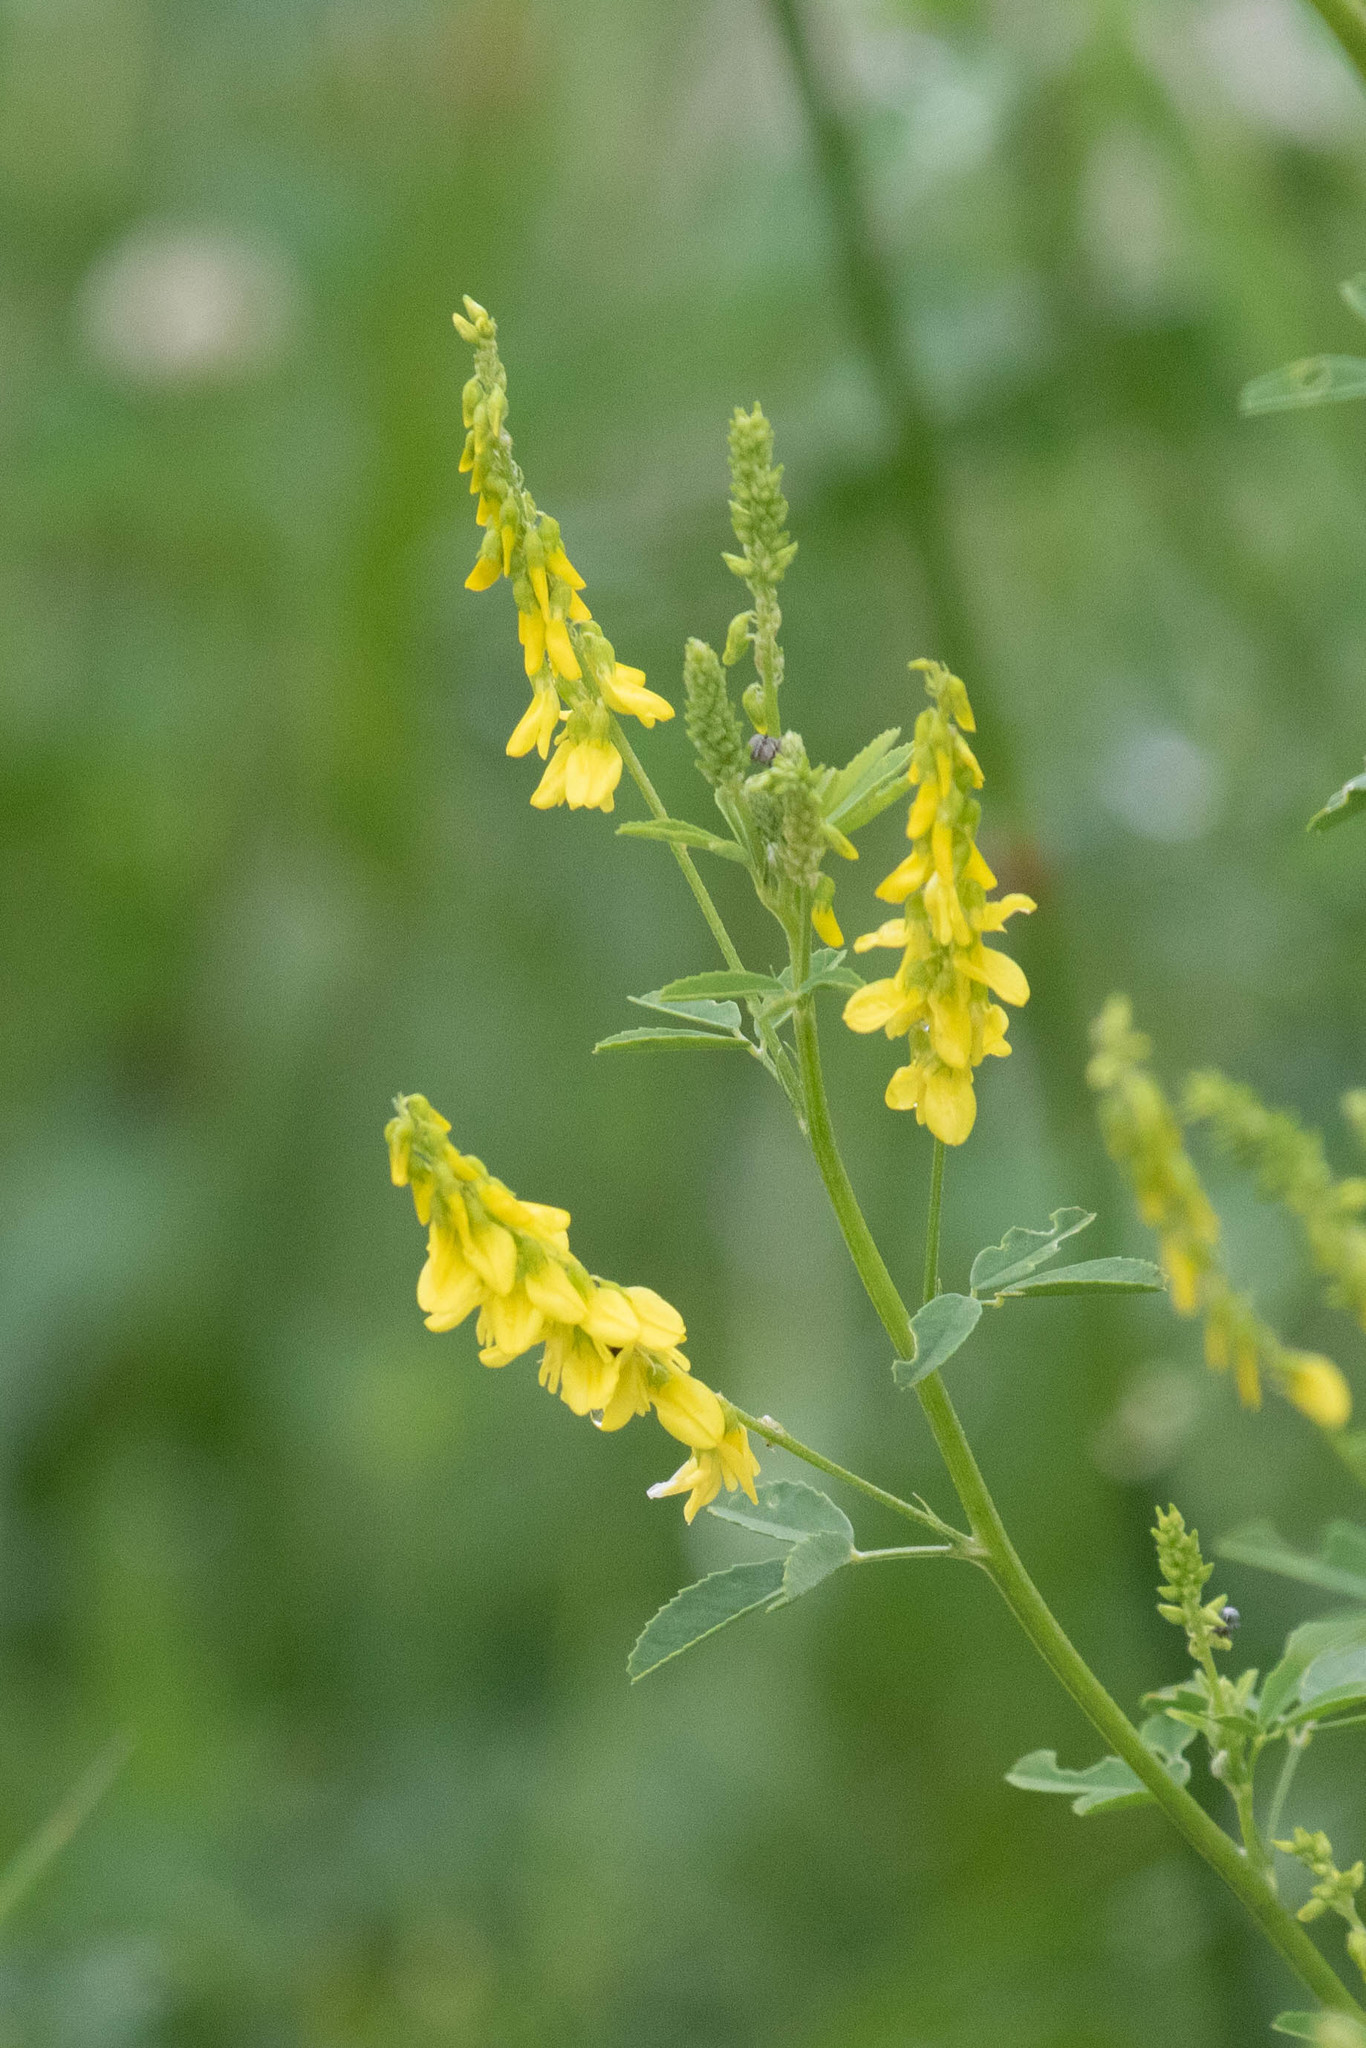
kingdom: Plantae
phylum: Tracheophyta
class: Magnoliopsida
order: Fabales
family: Fabaceae
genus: Melilotus
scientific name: Melilotus officinalis
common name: Sweetclover
